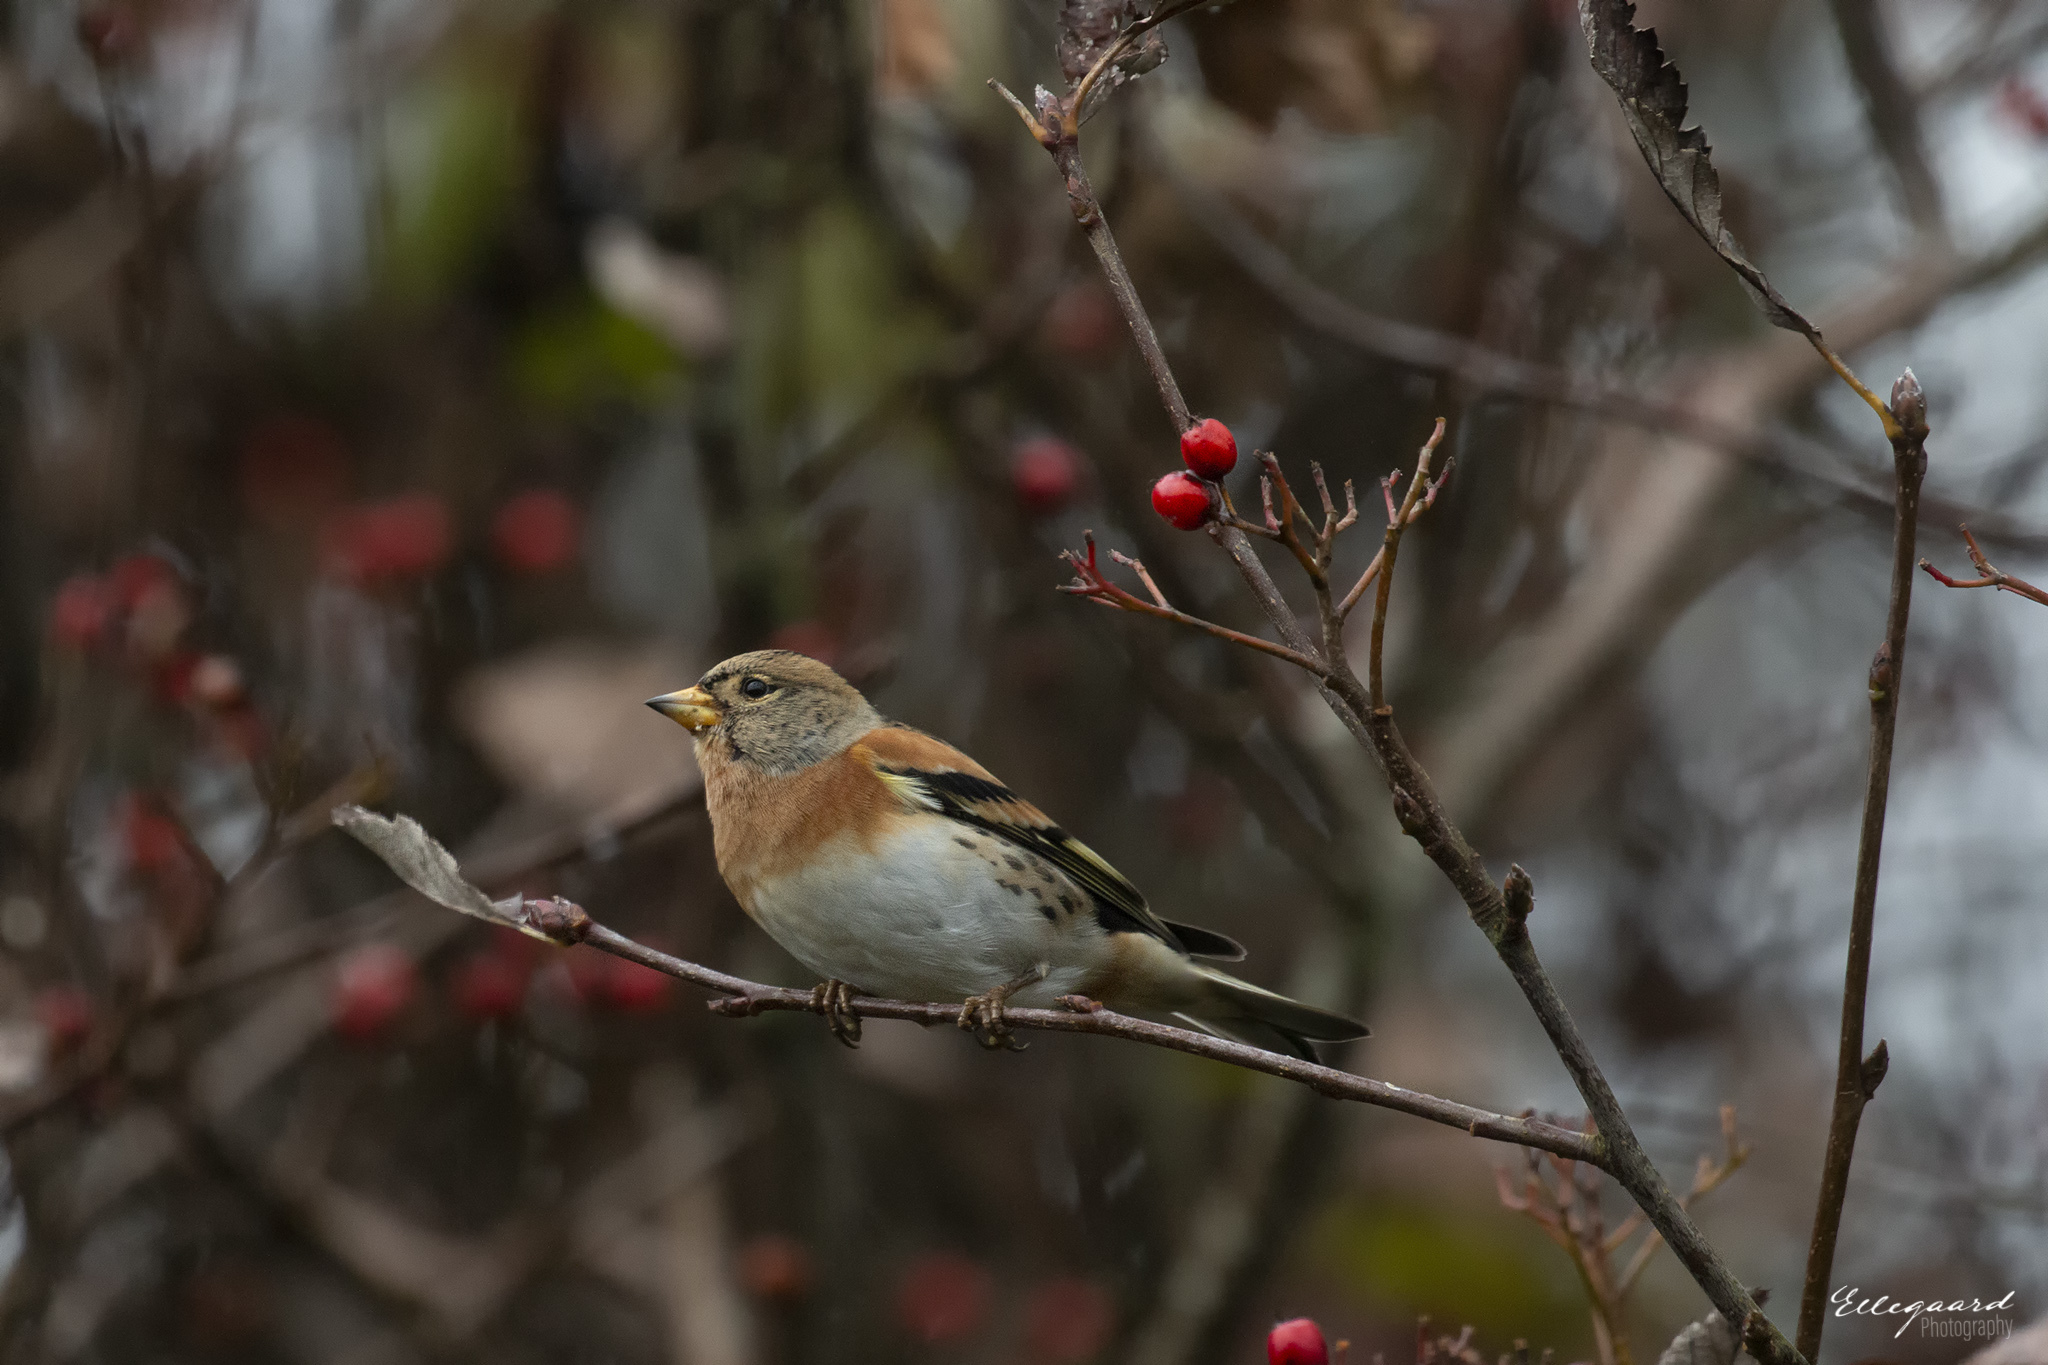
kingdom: Animalia
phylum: Chordata
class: Aves
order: Passeriformes
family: Fringillidae
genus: Fringilla
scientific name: Fringilla montifringilla
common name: Brambling
